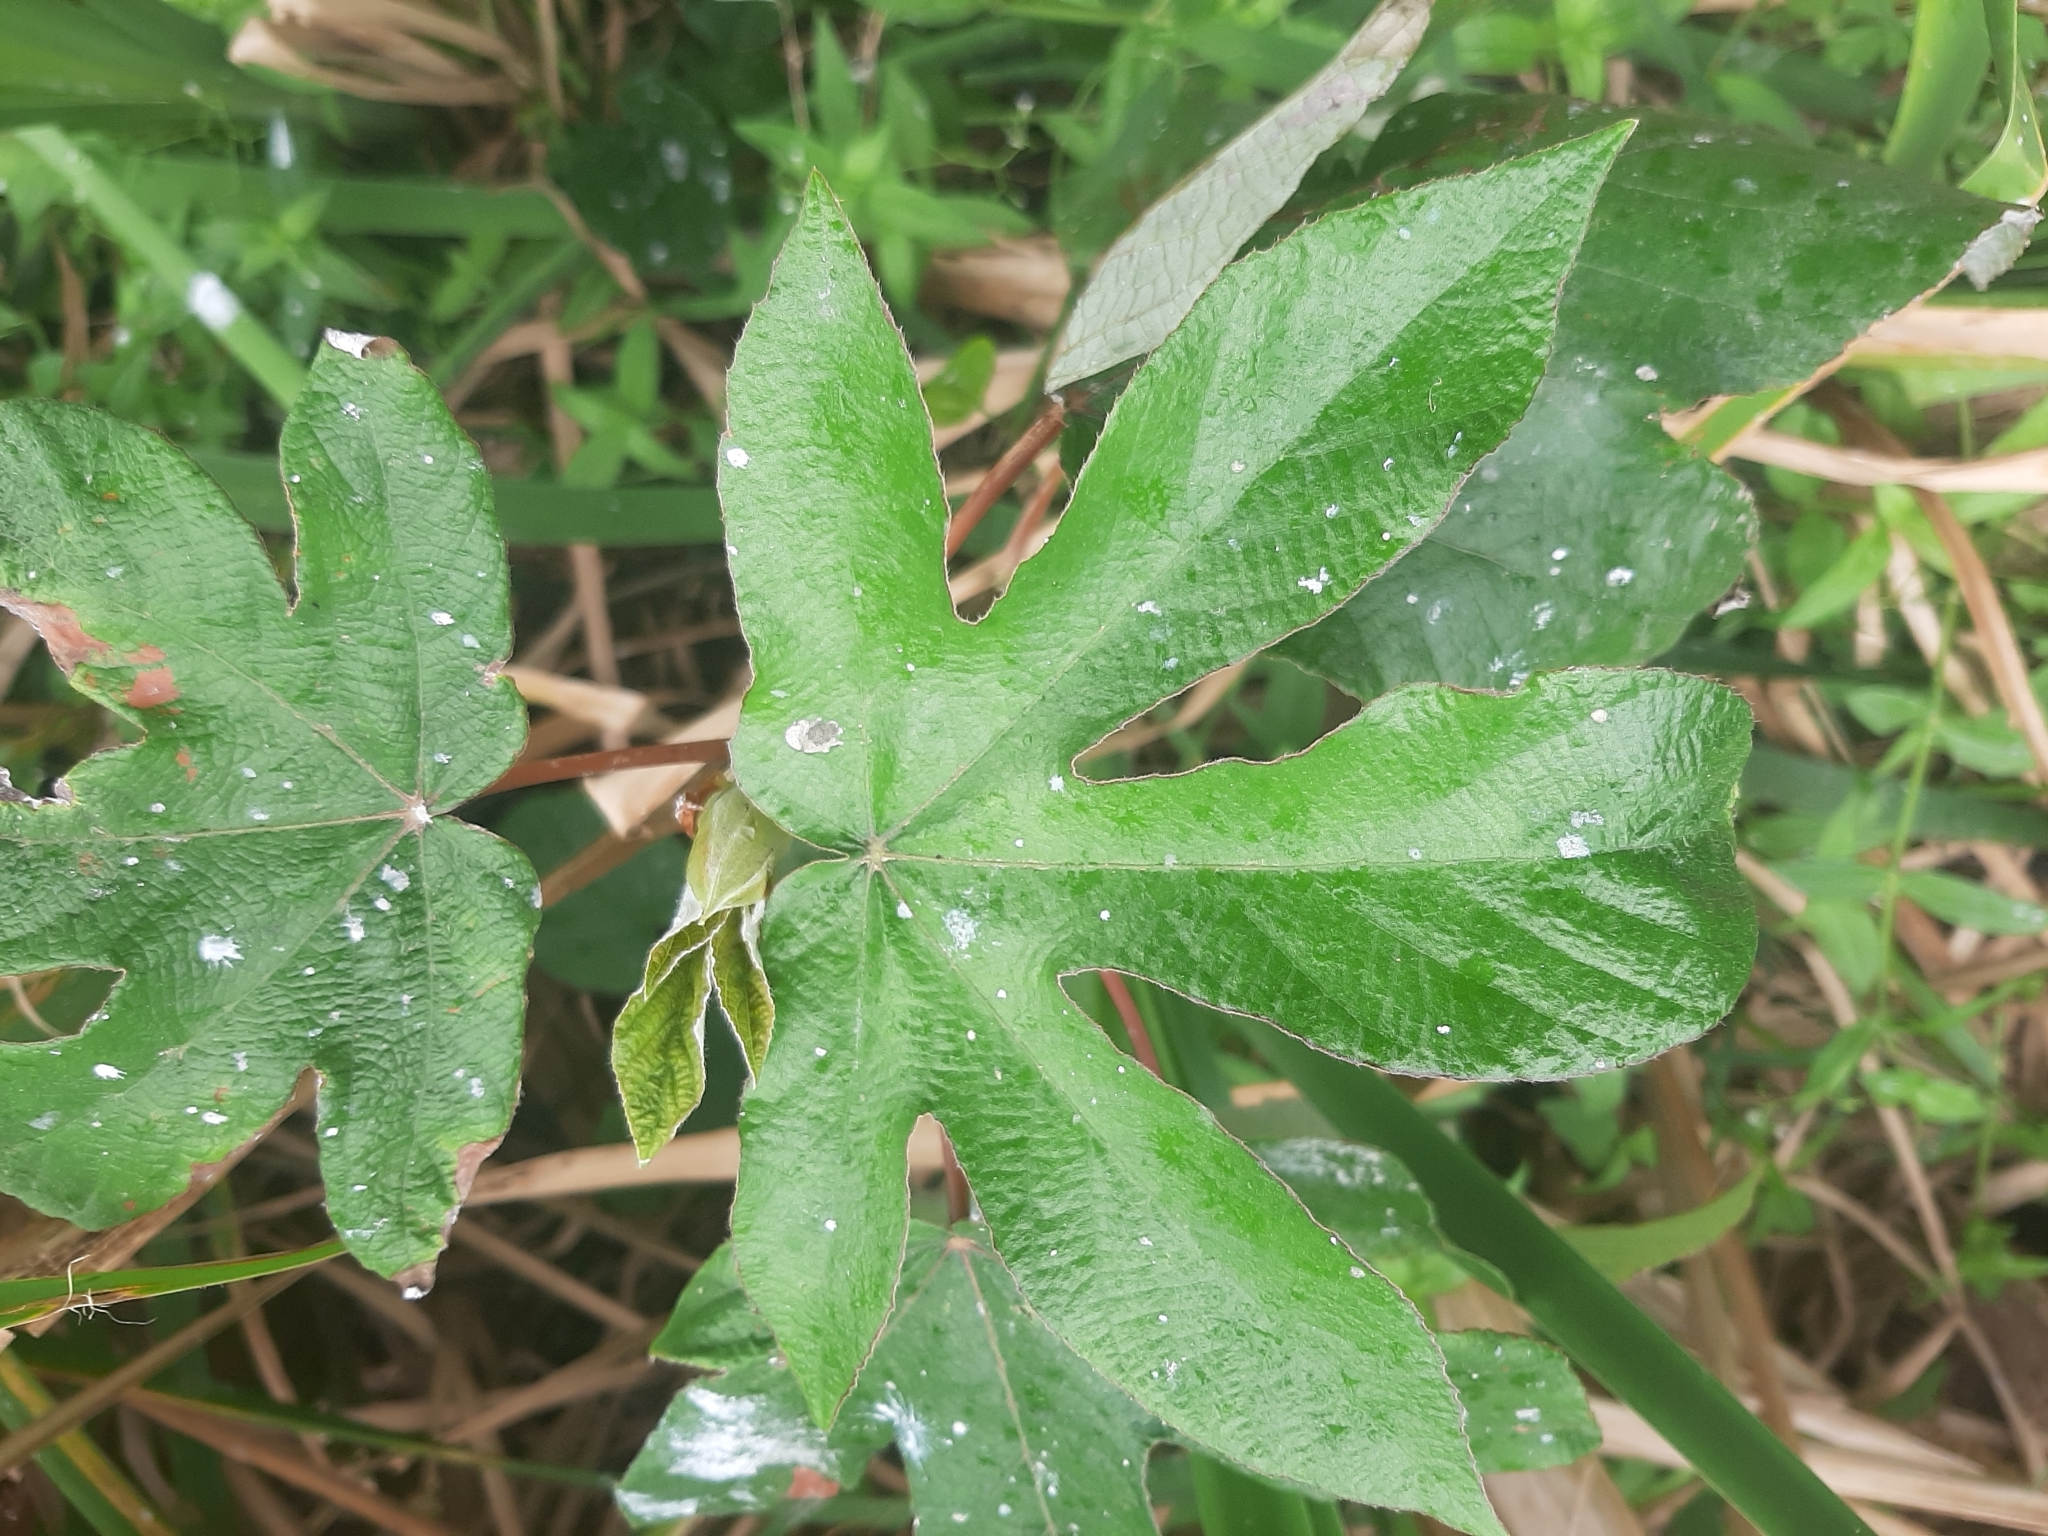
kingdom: Plantae
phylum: Tracheophyta
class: Magnoliopsida
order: Rosales
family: Urticaceae
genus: Cecropia
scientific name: Cecropia pachystachya
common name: Ambay pumpwood
